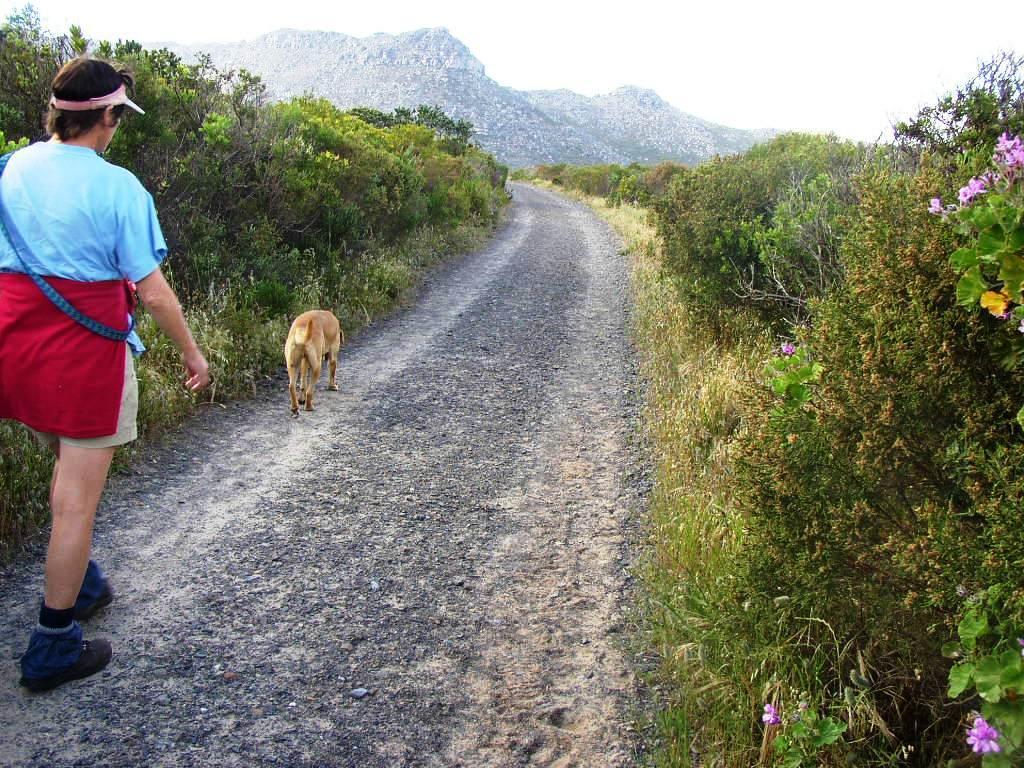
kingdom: Plantae
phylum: Tracheophyta
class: Liliopsida
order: Poales
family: Poaceae
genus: Briza
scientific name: Briza maxima
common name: Big quakinggrass
